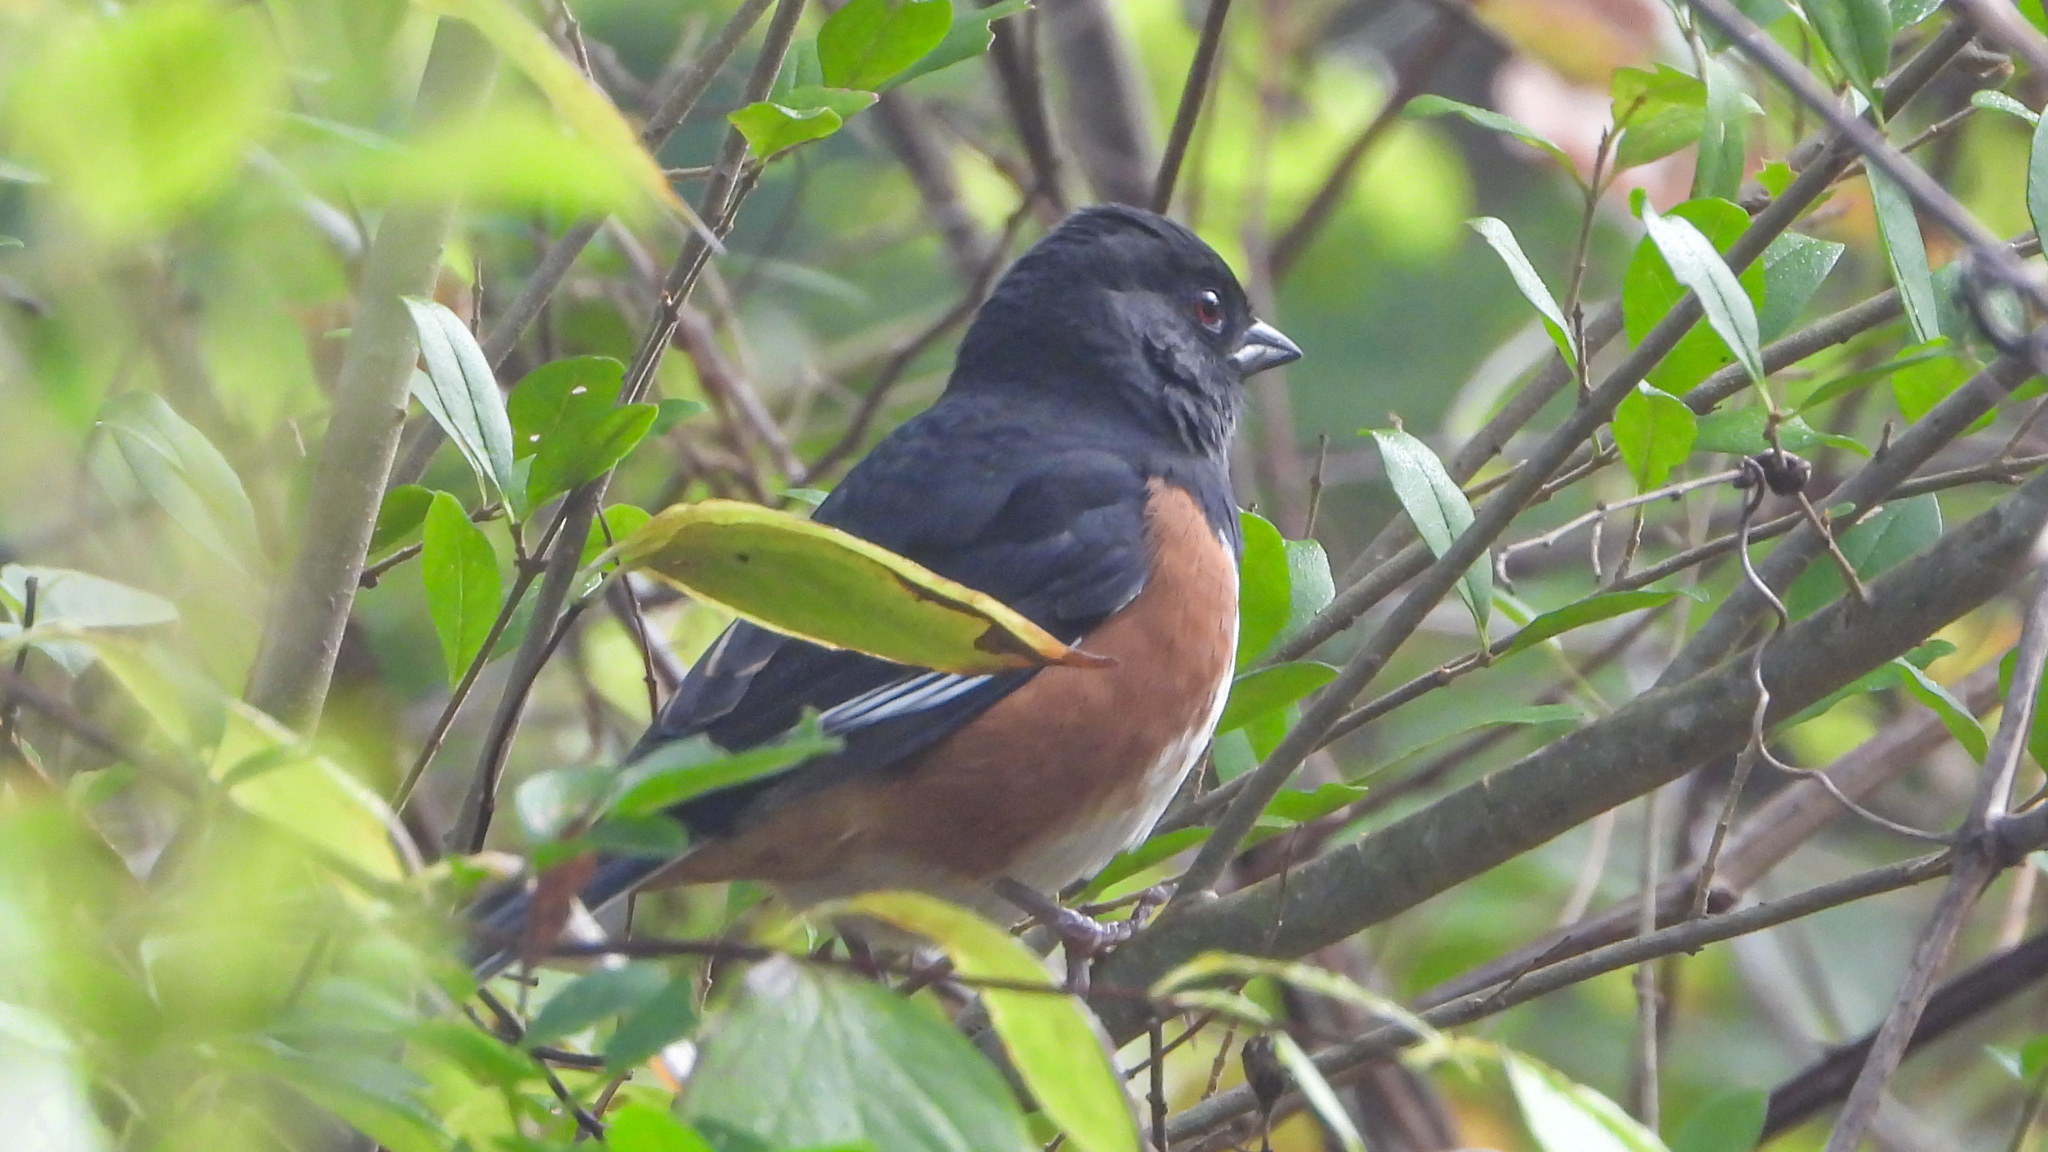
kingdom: Animalia
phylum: Chordata
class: Aves
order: Passeriformes
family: Passerellidae
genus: Pipilo
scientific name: Pipilo erythrophthalmus
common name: Eastern towhee
